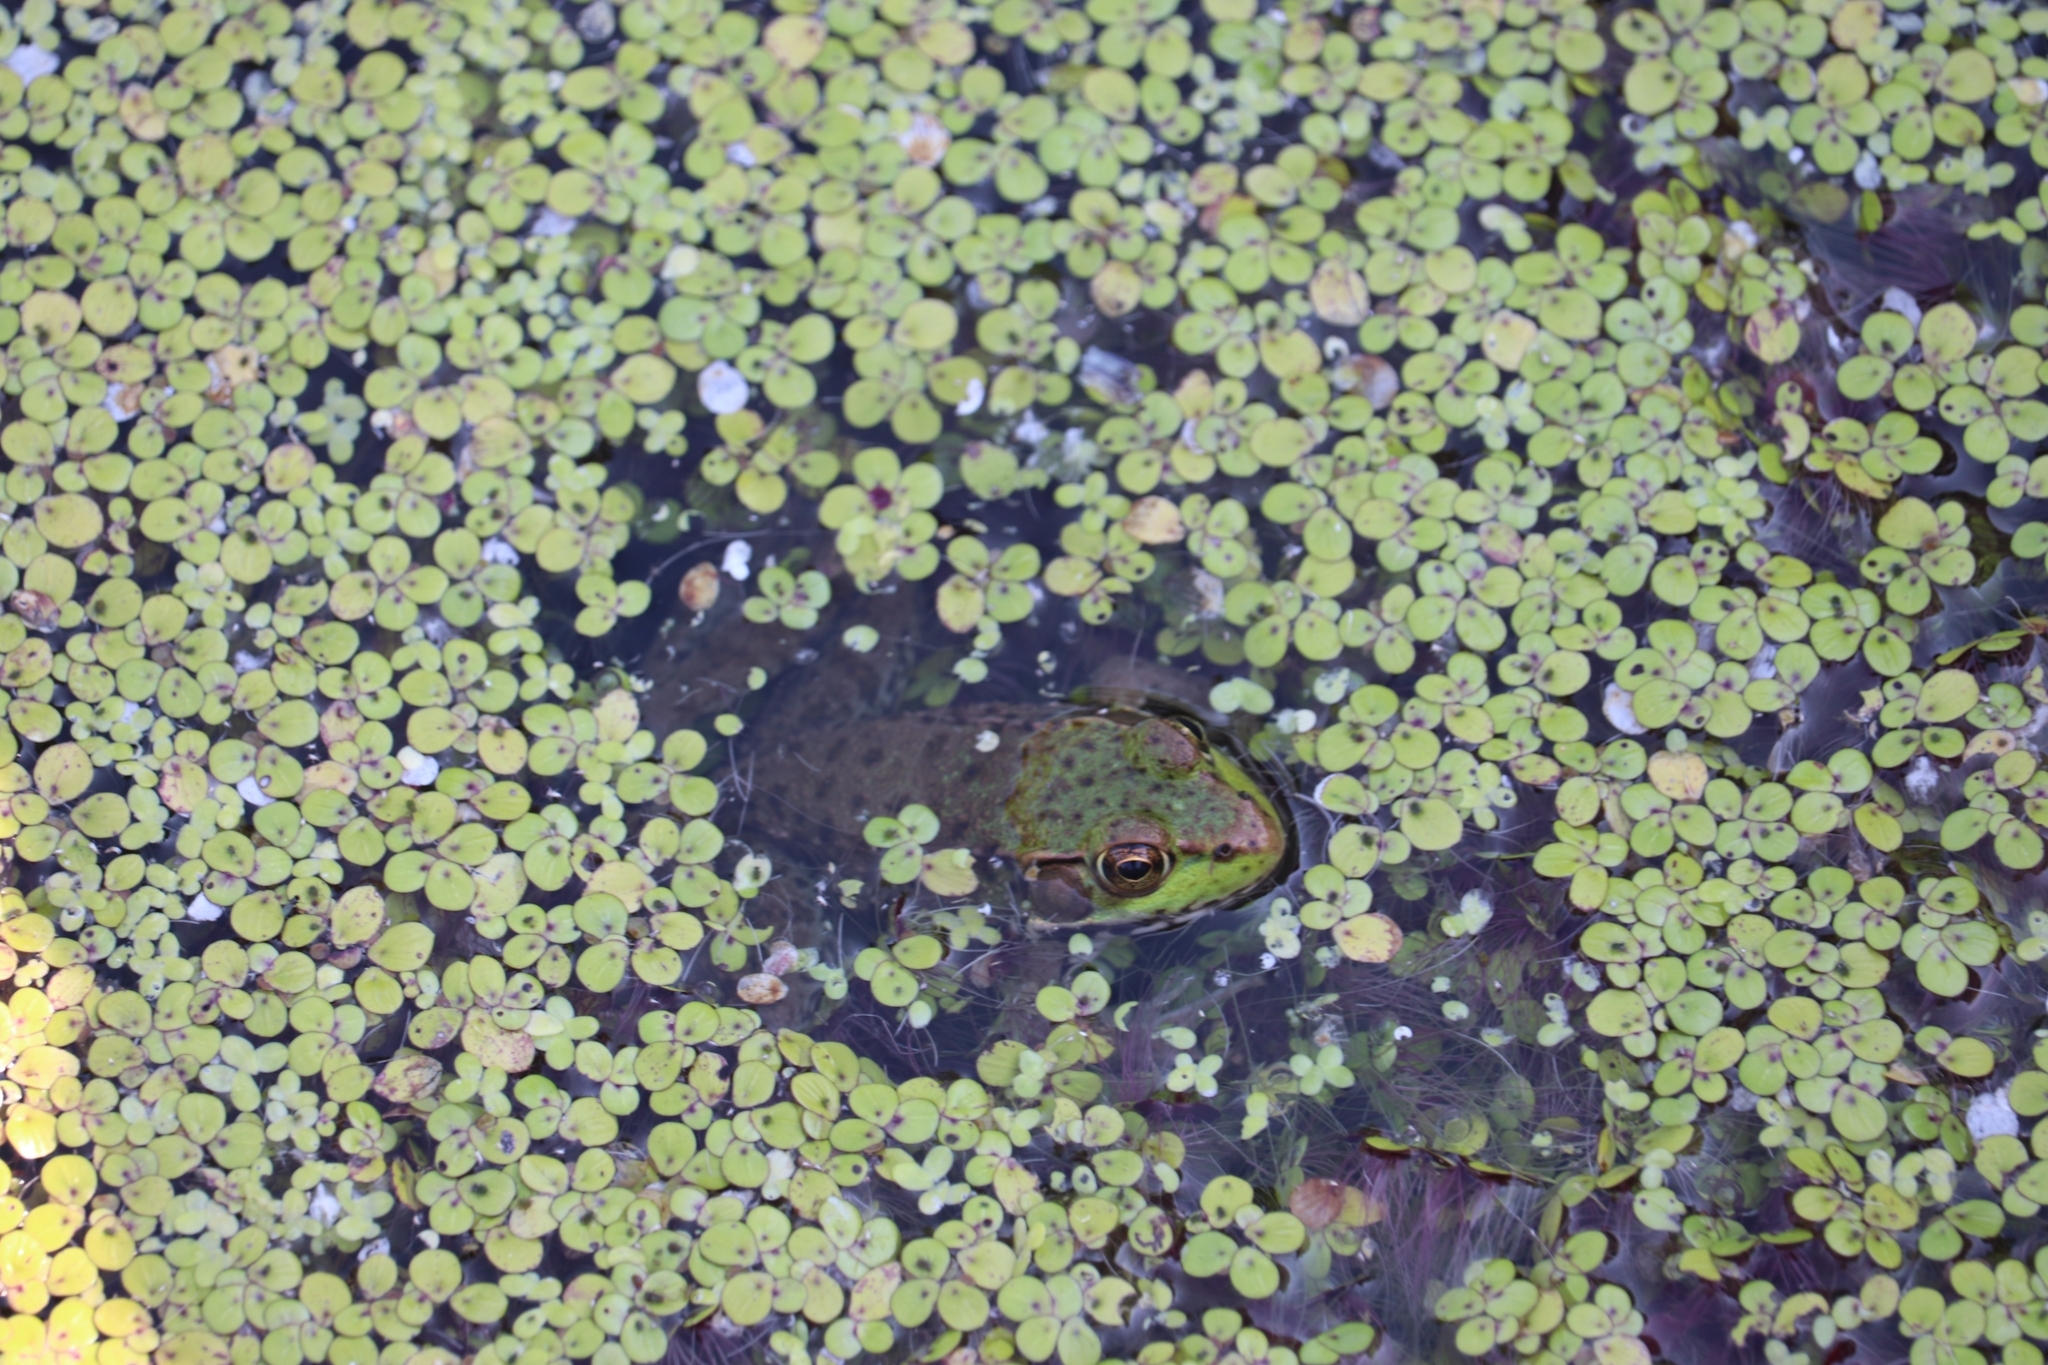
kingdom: Animalia
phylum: Chordata
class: Amphibia
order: Anura
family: Ranidae
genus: Lithobates
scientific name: Lithobates clamitans
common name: Green frog
